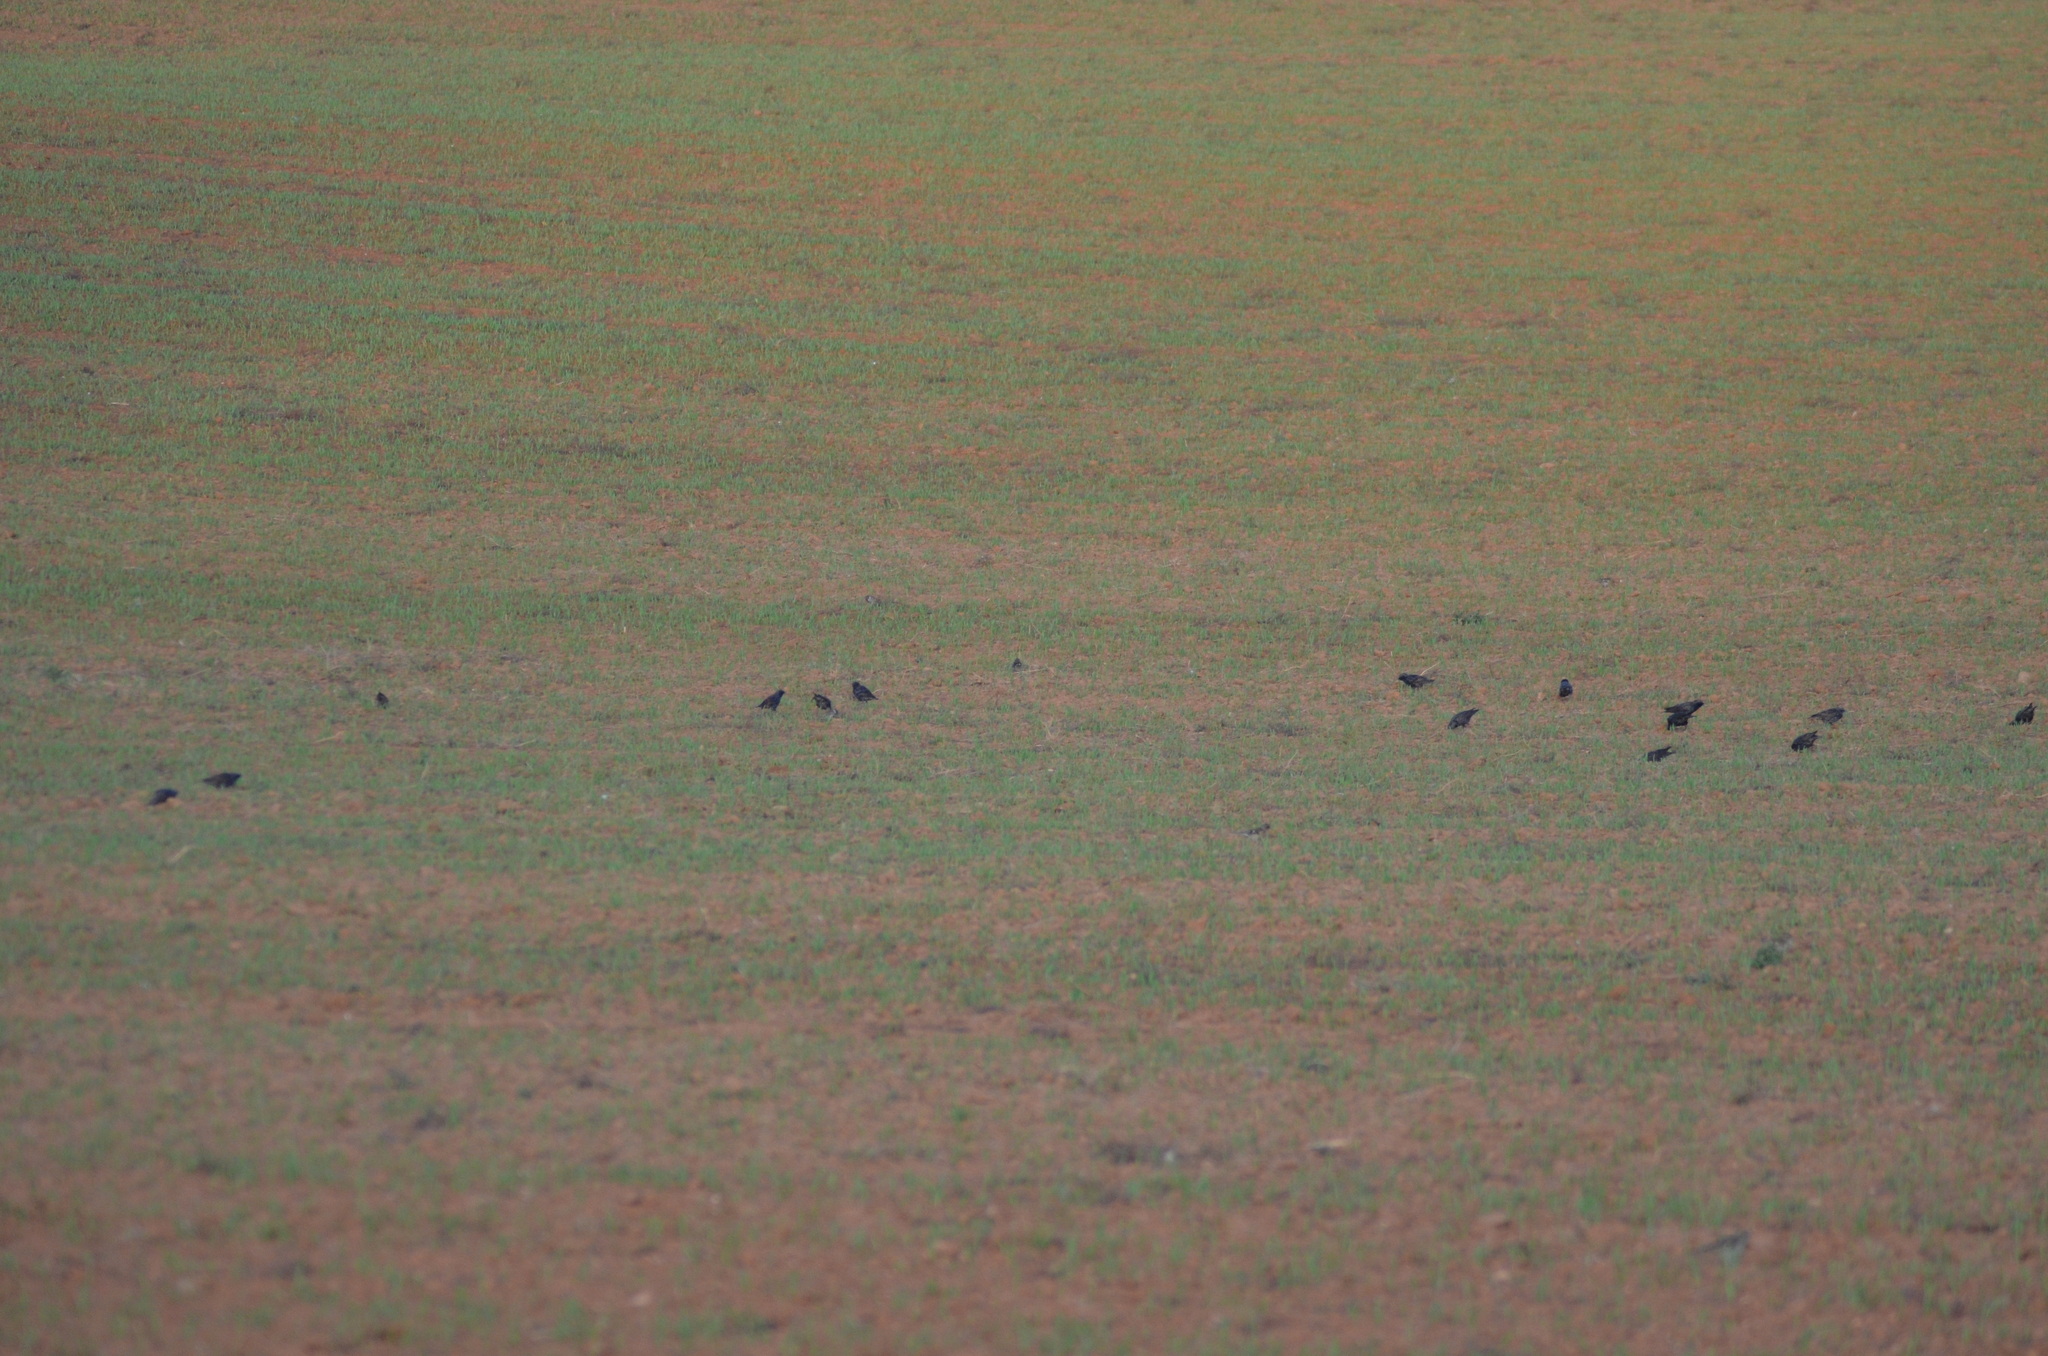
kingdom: Animalia
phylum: Chordata
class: Aves
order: Passeriformes
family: Sturnidae
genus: Sturnus
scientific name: Sturnus vulgaris
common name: Common starling
